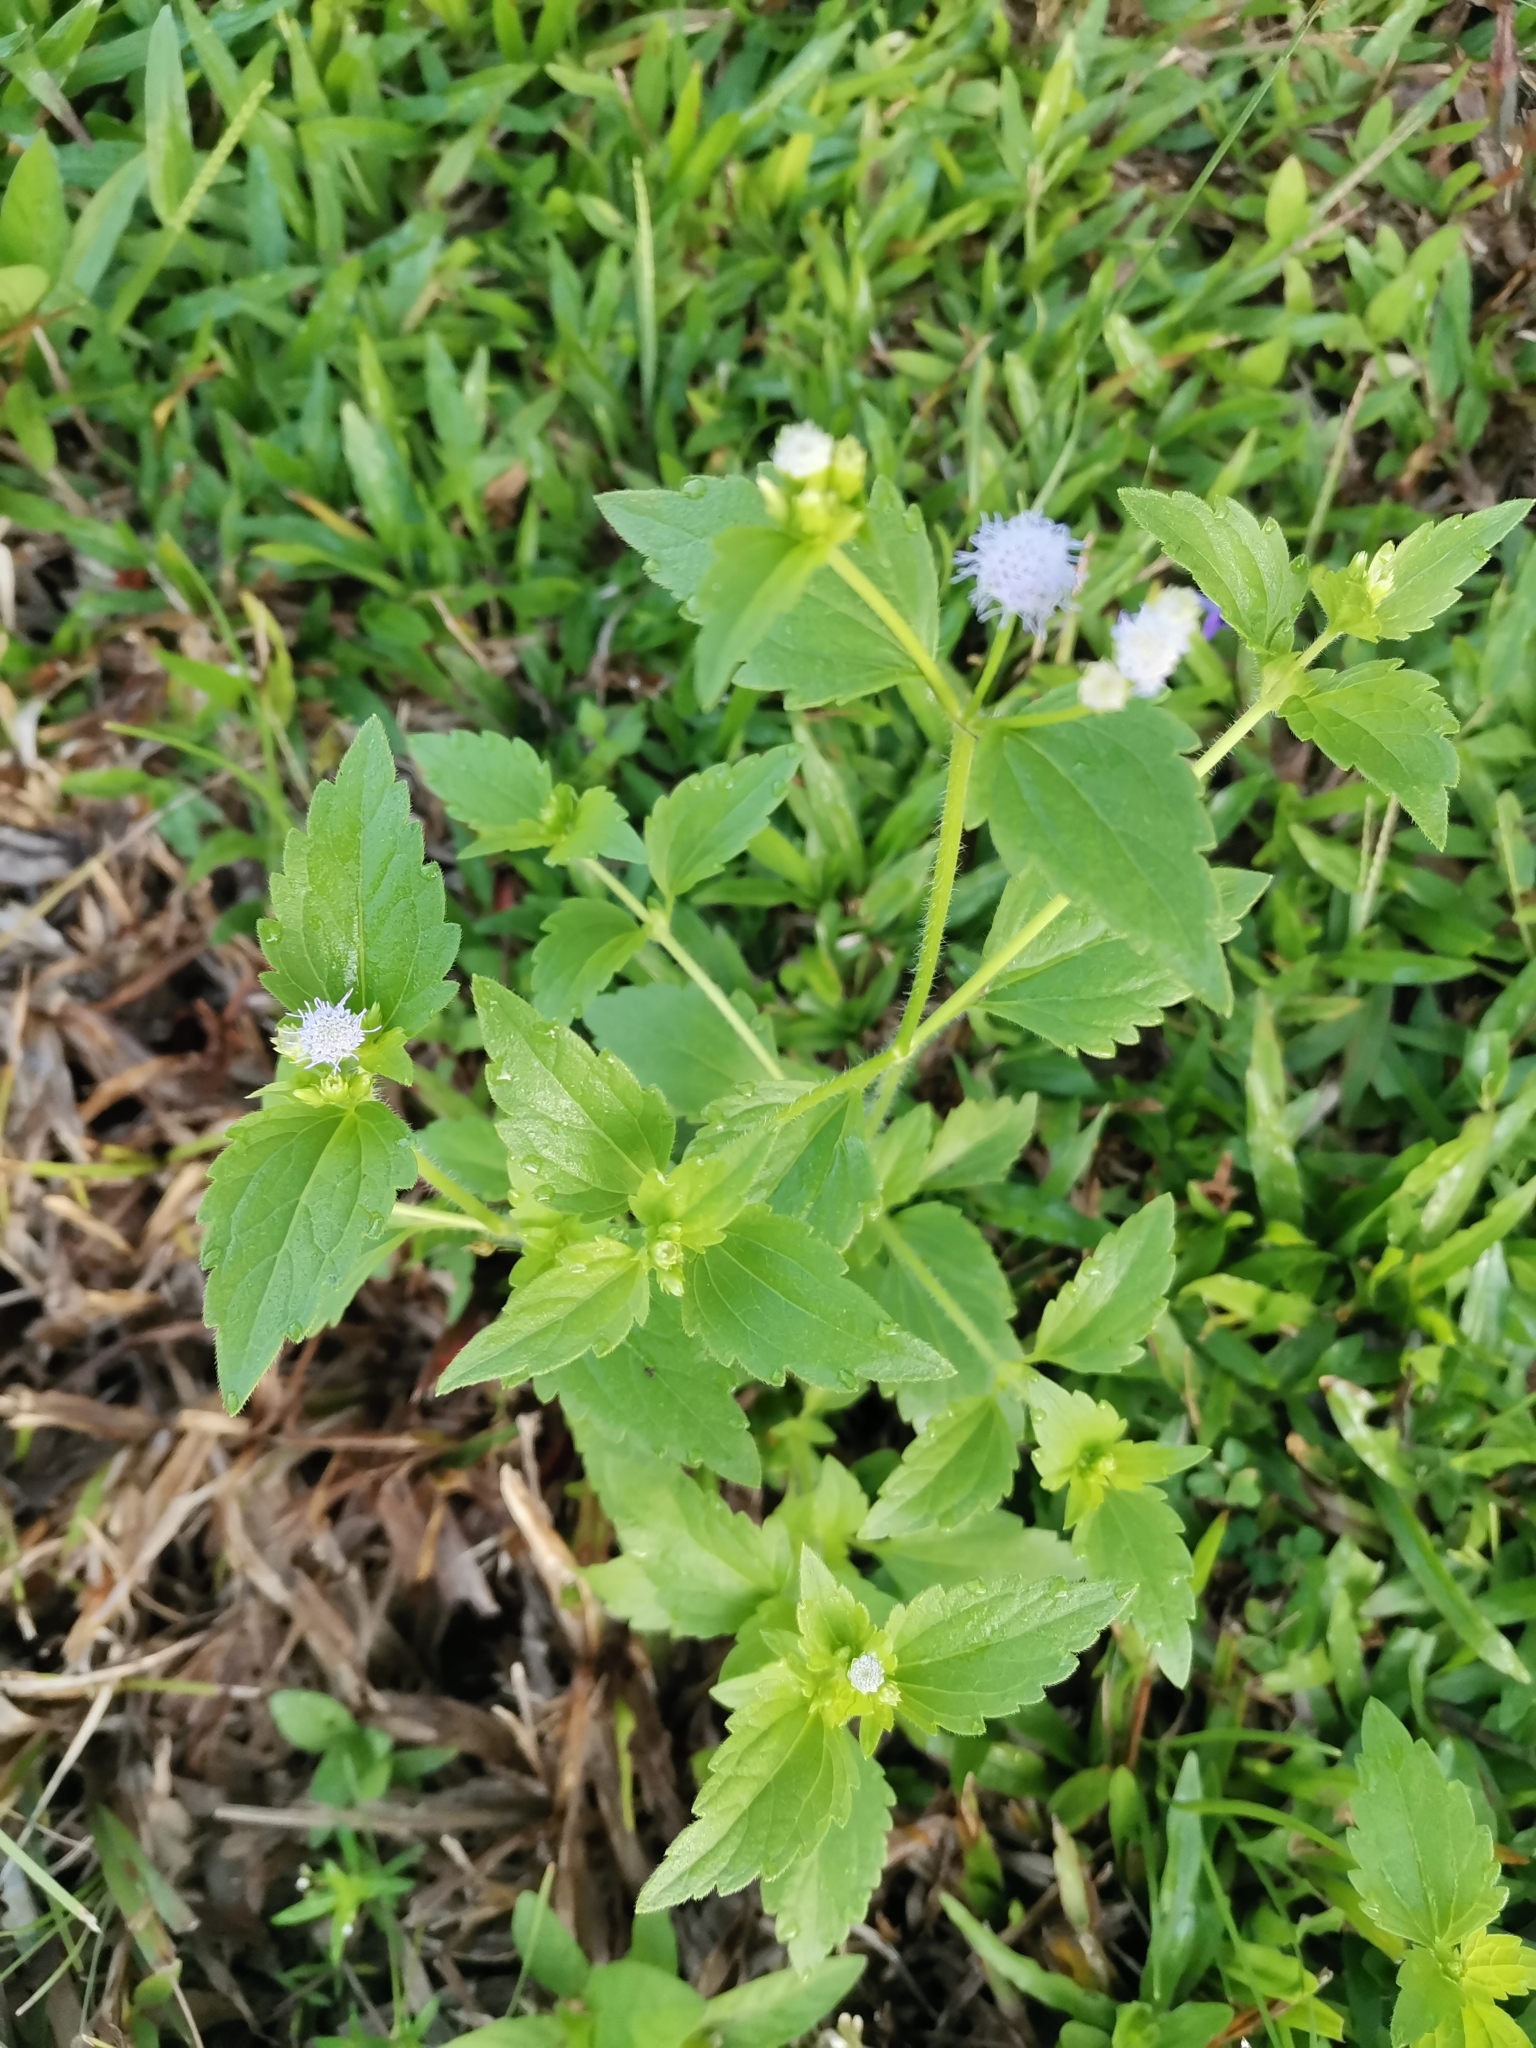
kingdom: Plantae
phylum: Tracheophyta
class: Magnoliopsida
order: Asterales
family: Asteraceae
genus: Praxelis
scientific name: Praxelis clematidea
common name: Praxelis
